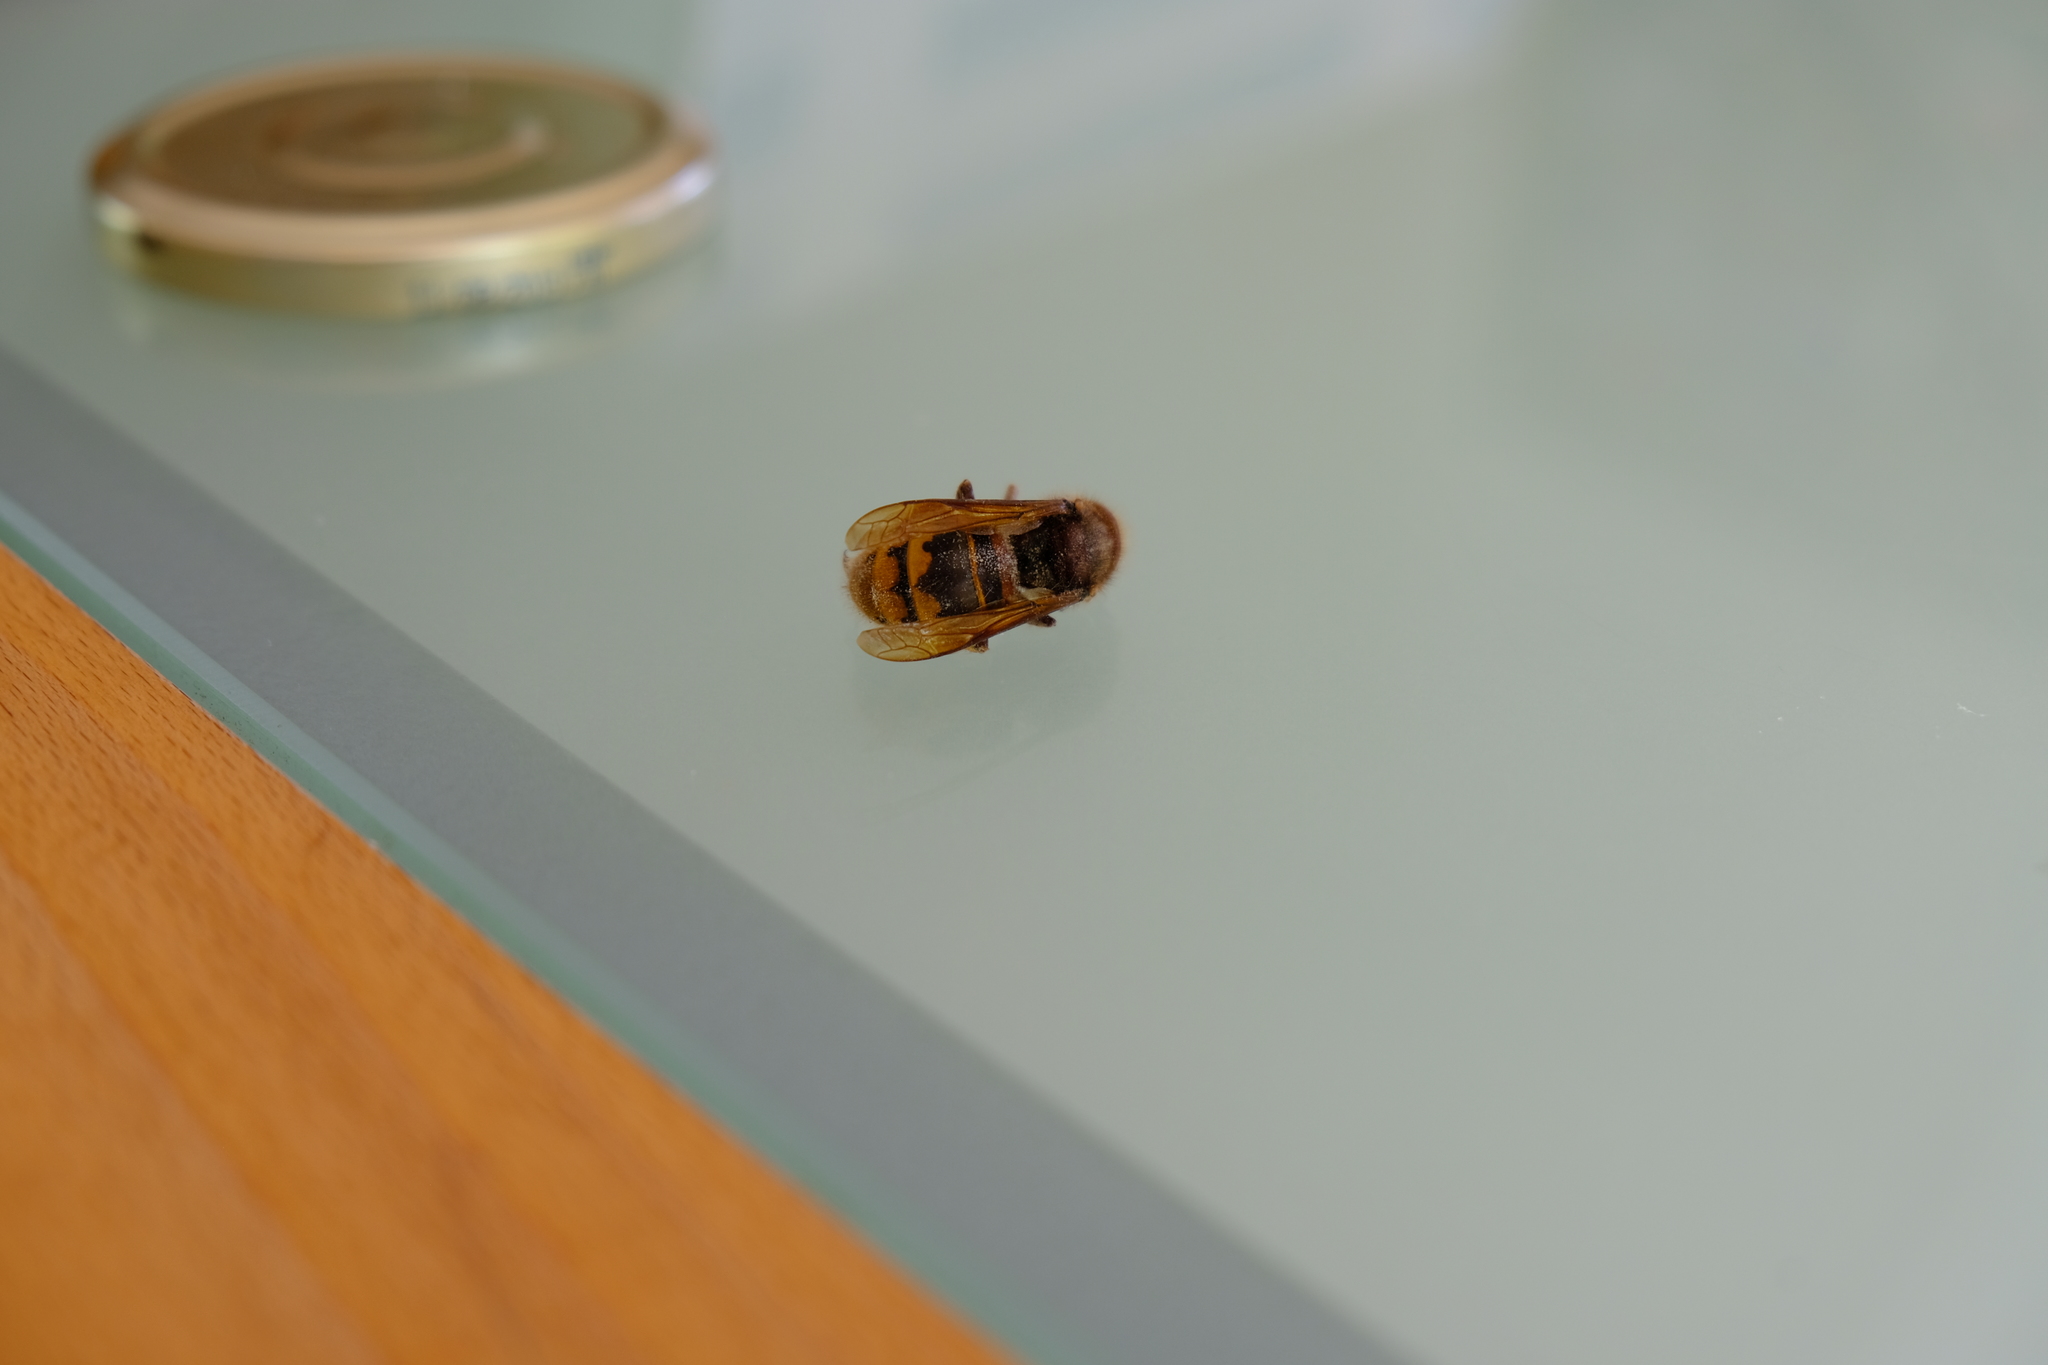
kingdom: Animalia
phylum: Arthropoda
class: Insecta
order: Hymenoptera
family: Vespidae
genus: Vespa
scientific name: Vespa crabro
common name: Hornet
